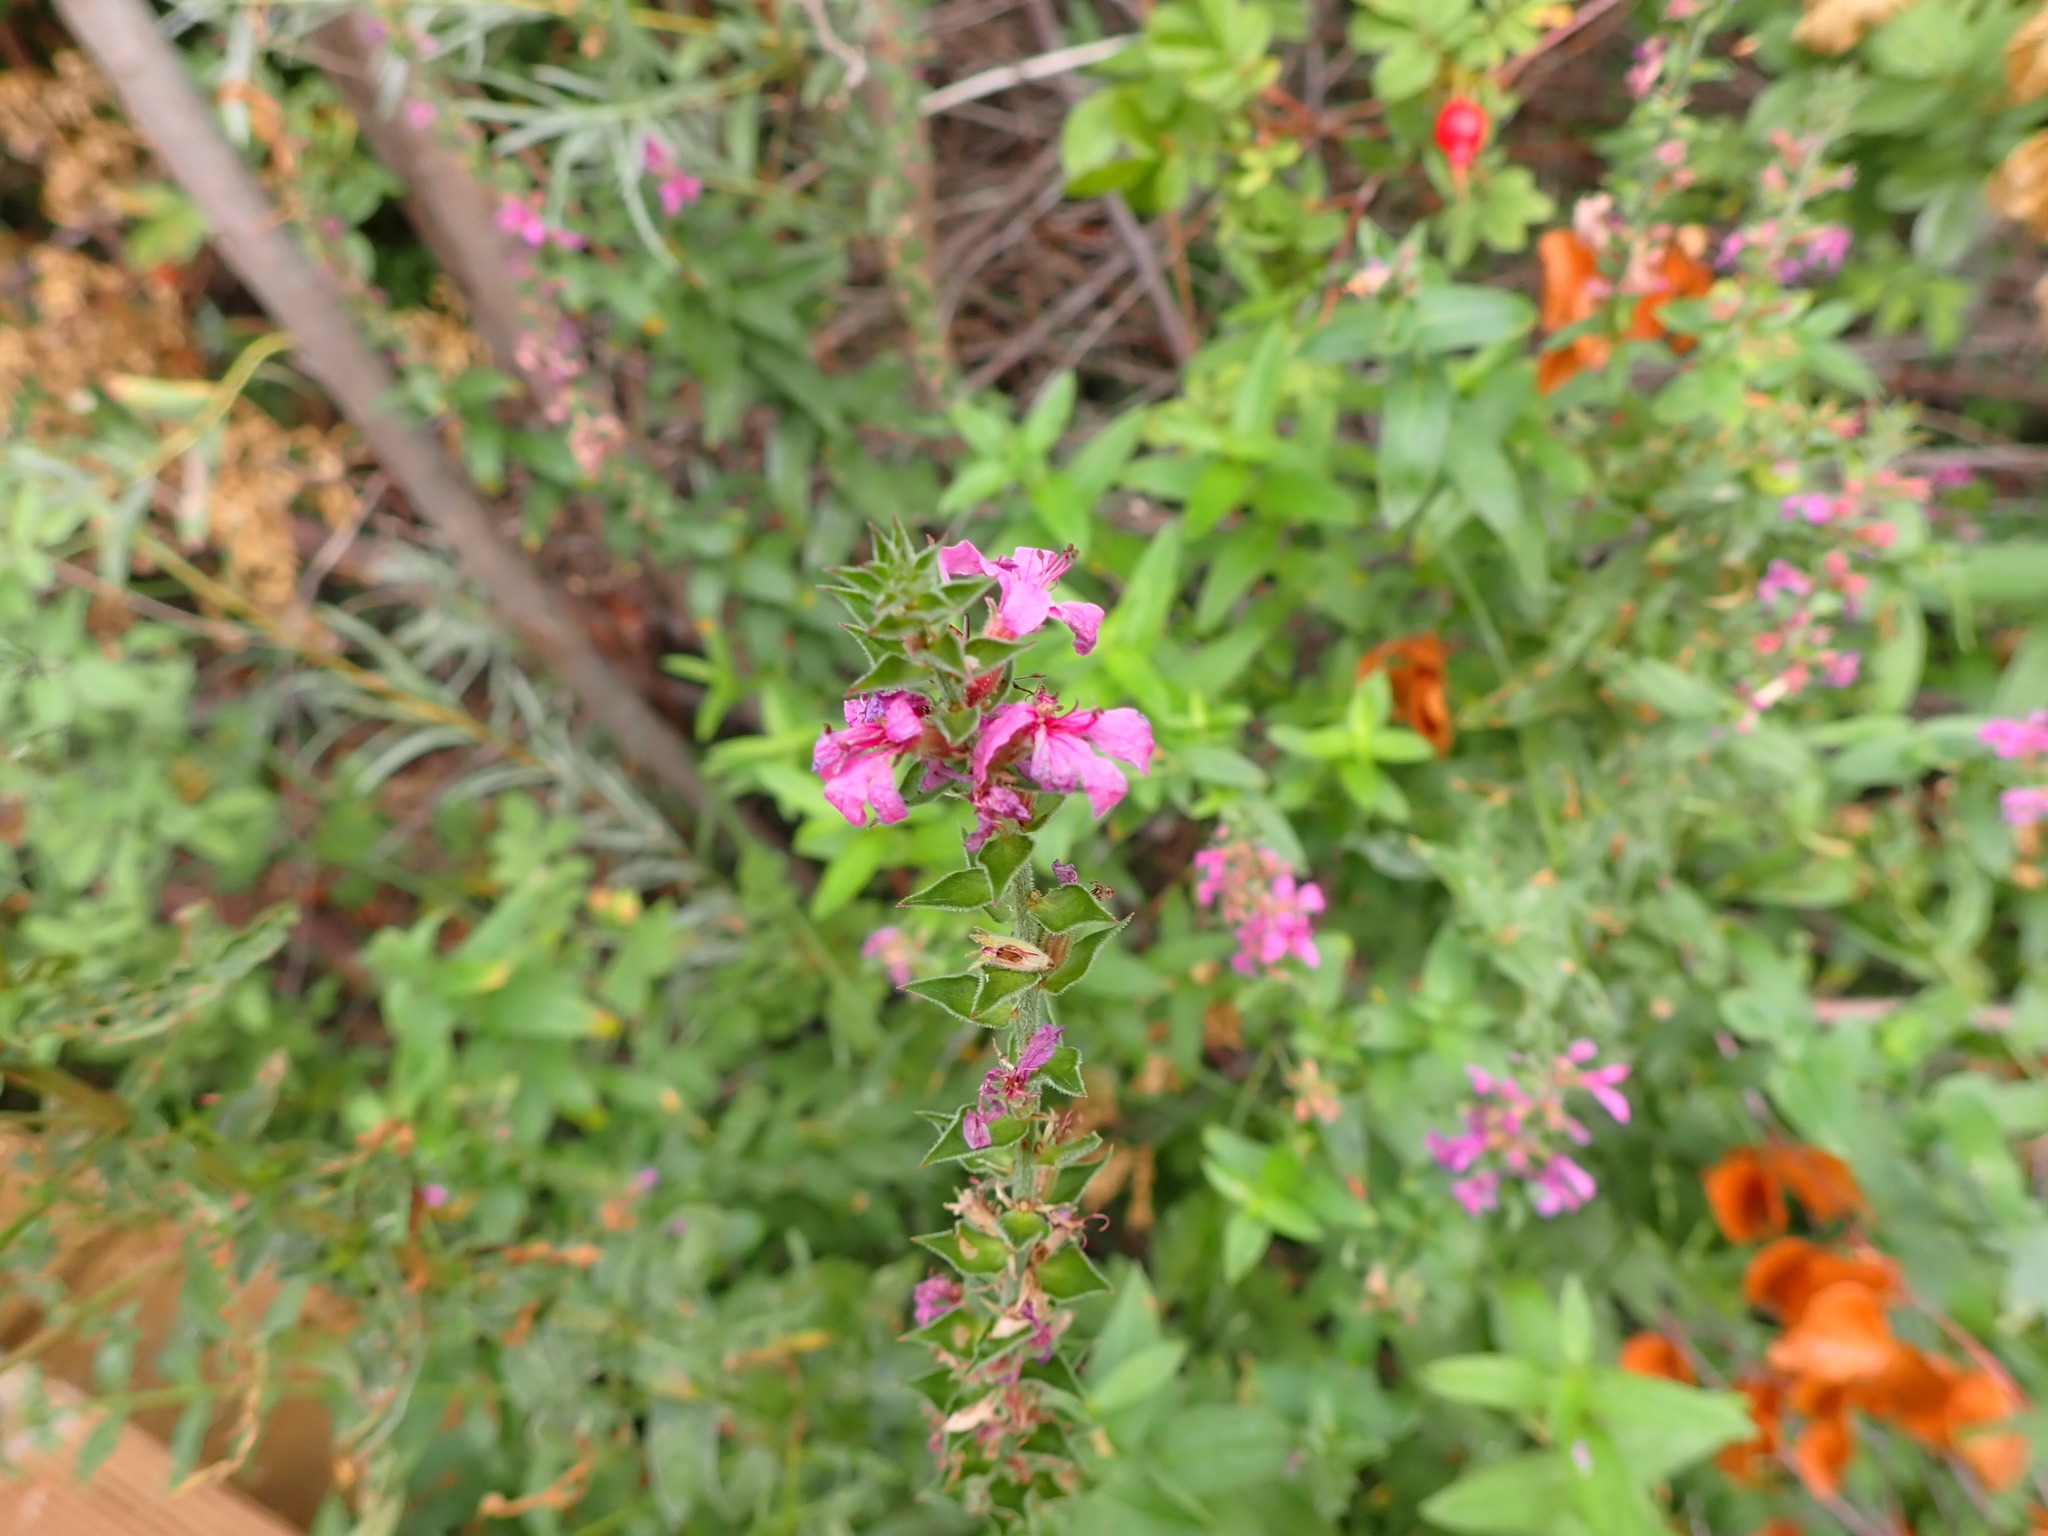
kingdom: Plantae
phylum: Tracheophyta
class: Magnoliopsida
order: Myrtales
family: Lythraceae
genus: Lythrum
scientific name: Lythrum salicaria
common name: Purple loosestrife
